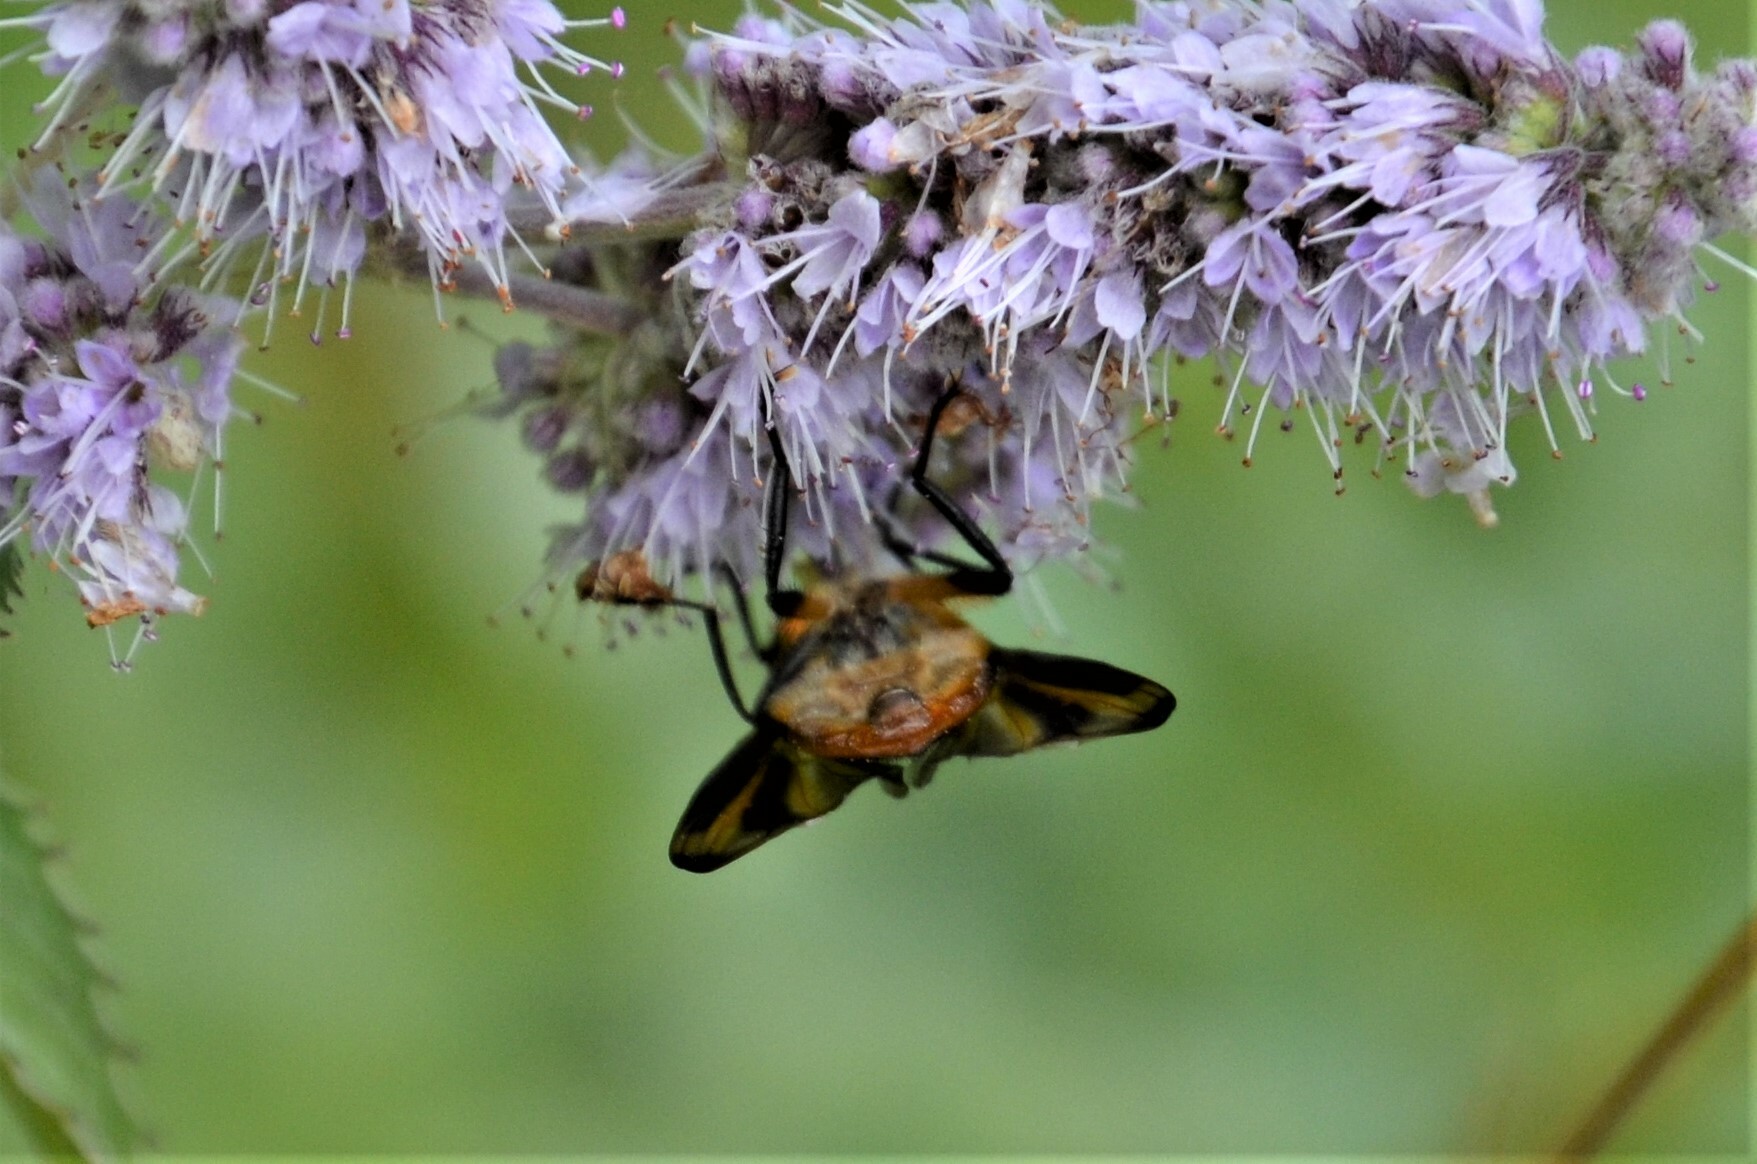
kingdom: Animalia
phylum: Arthropoda
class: Insecta
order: Diptera
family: Tachinidae
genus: Phasia
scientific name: Phasia hemiptera
